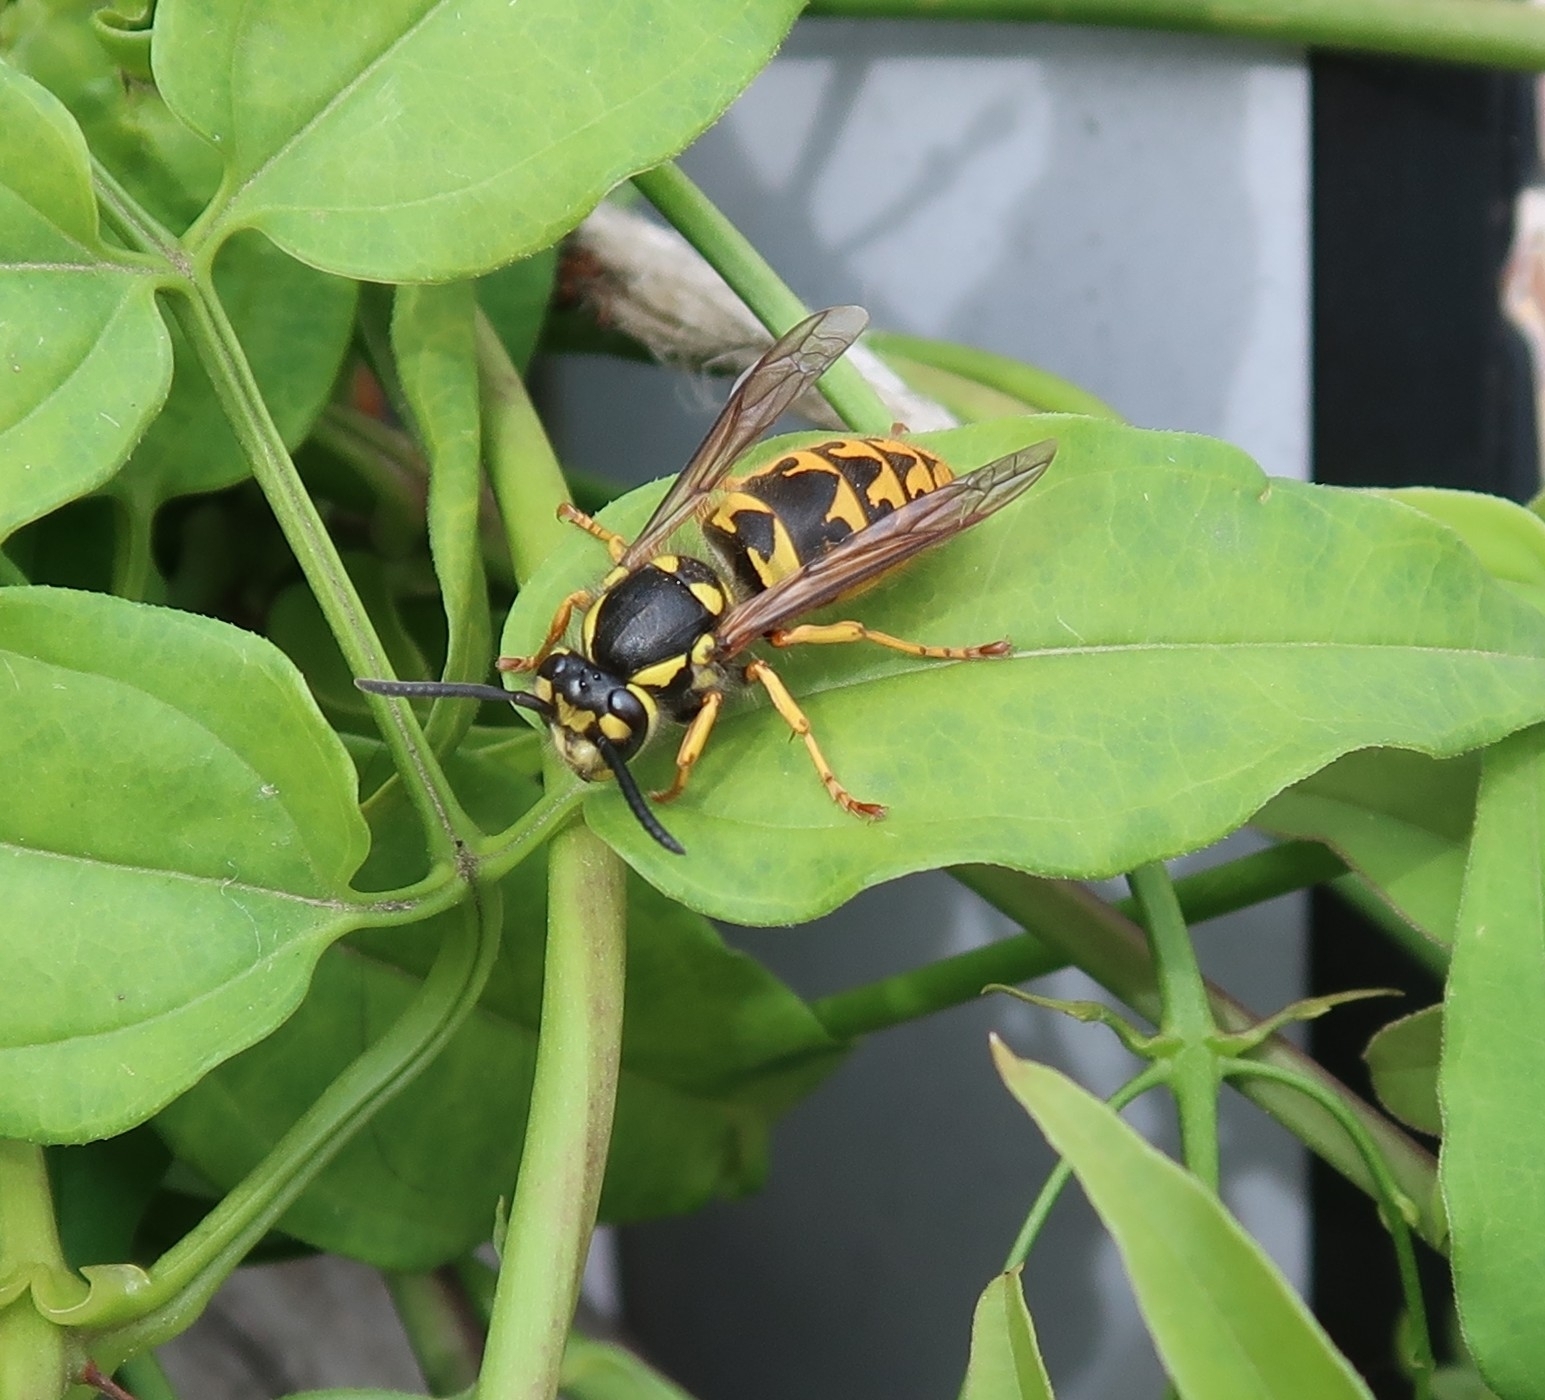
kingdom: Animalia
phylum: Arthropoda
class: Insecta
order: Hymenoptera
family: Vespidae
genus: Vespula
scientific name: Vespula germanica
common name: German wasp
